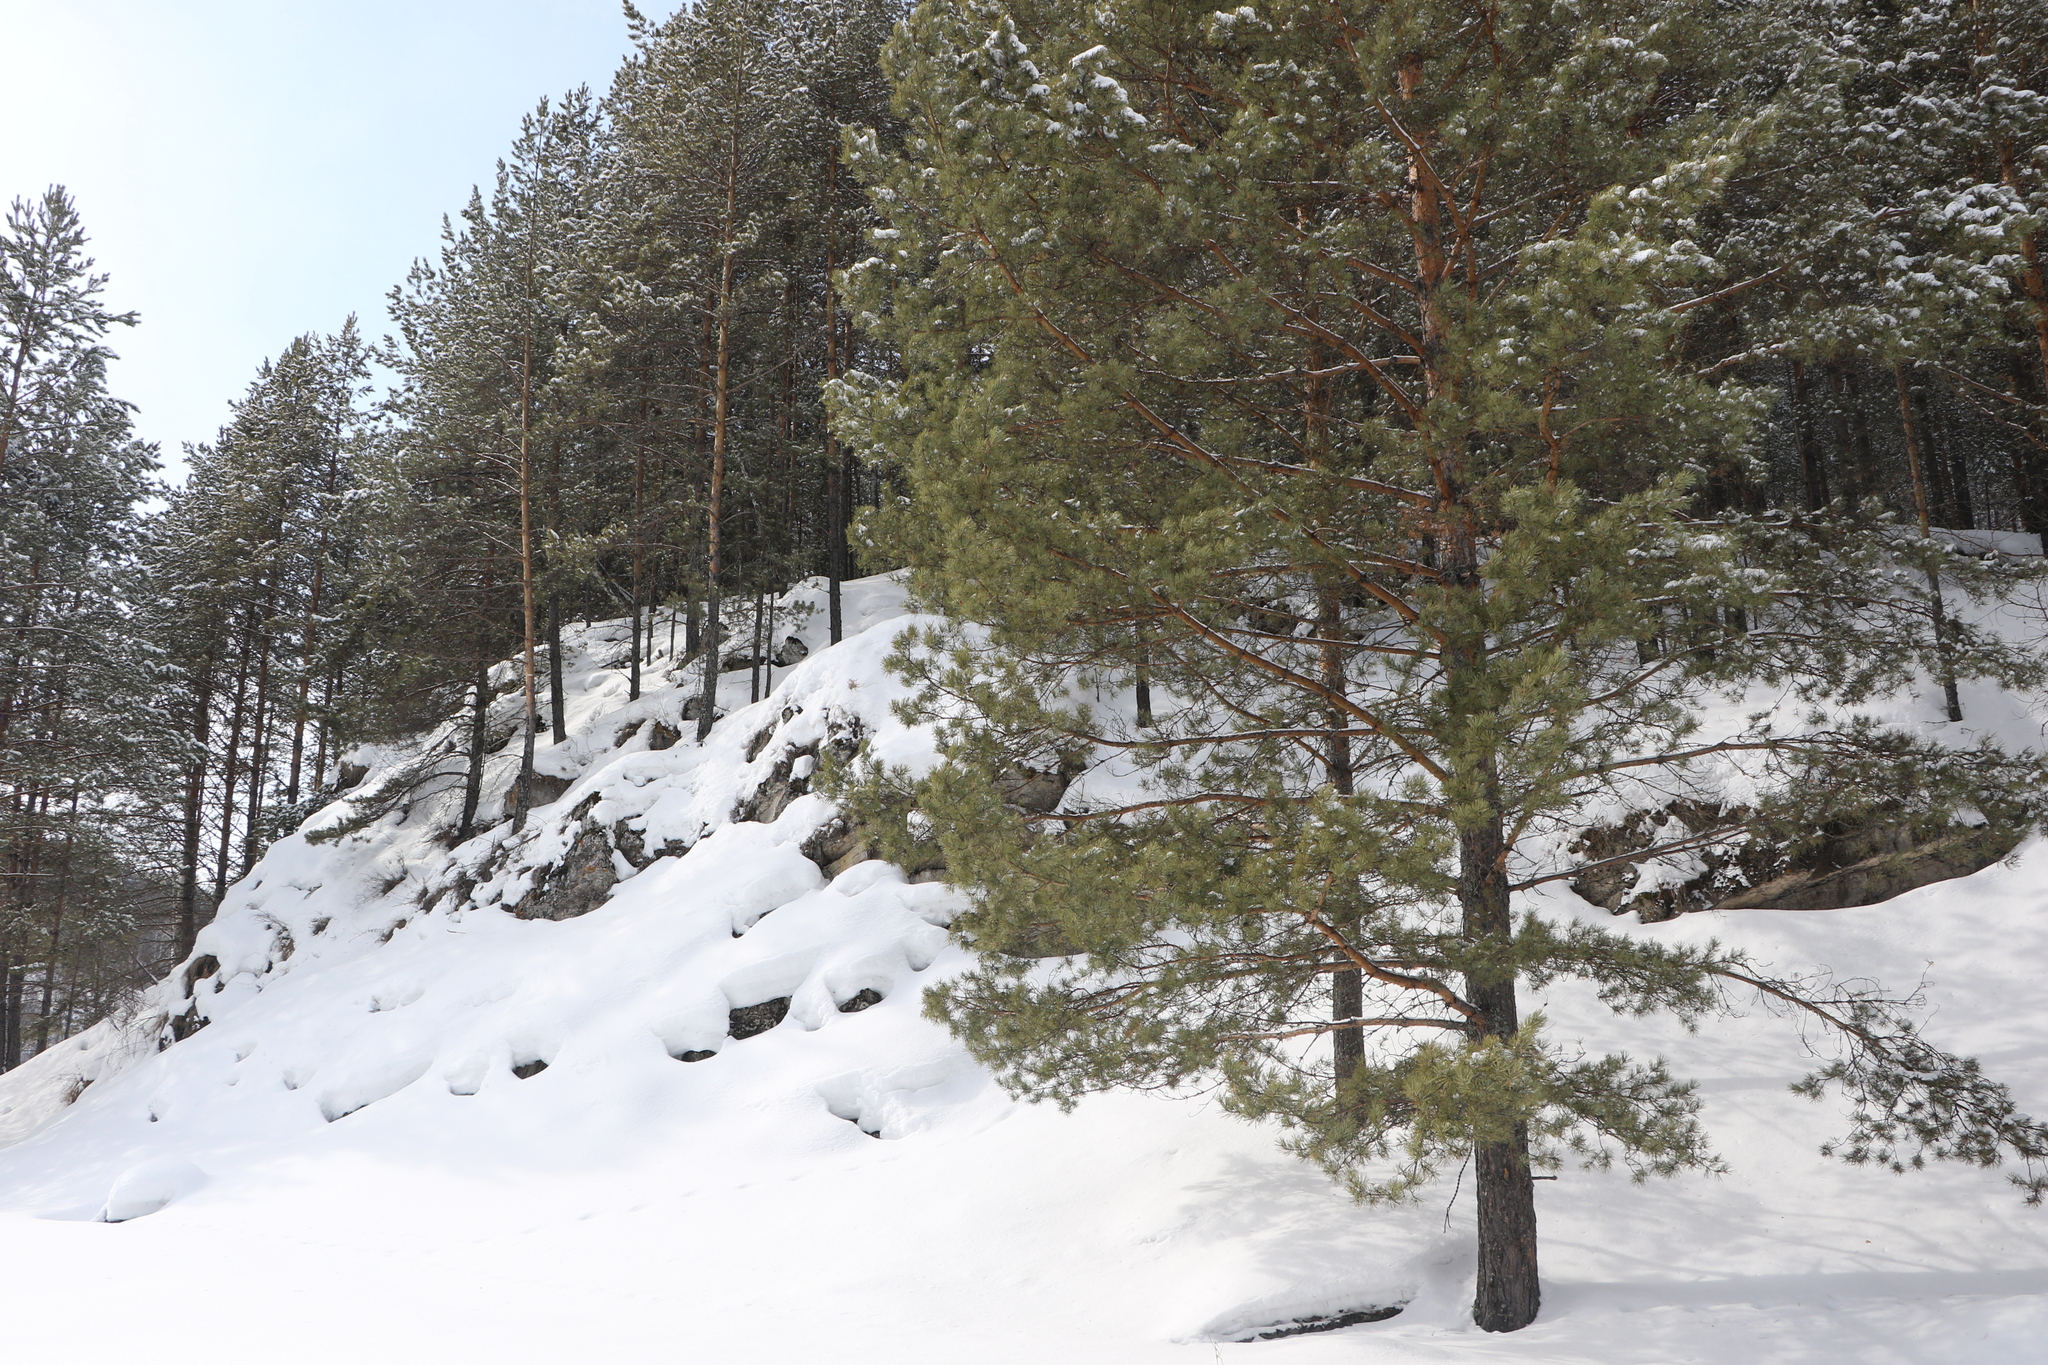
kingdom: Plantae
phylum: Tracheophyta
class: Pinopsida
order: Pinales
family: Pinaceae
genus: Pinus
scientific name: Pinus sylvestris
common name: Scots pine
